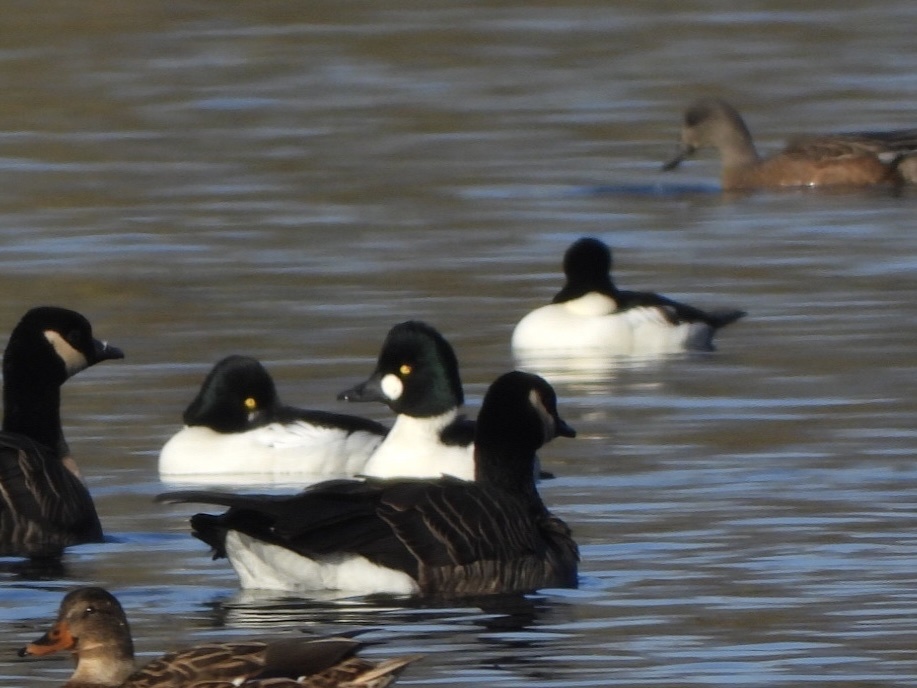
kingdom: Animalia
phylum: Chordata
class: Aves
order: Anseriformes
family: Anatidae
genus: Bucephala
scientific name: Bucephala clangula
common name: Common goldeneye
